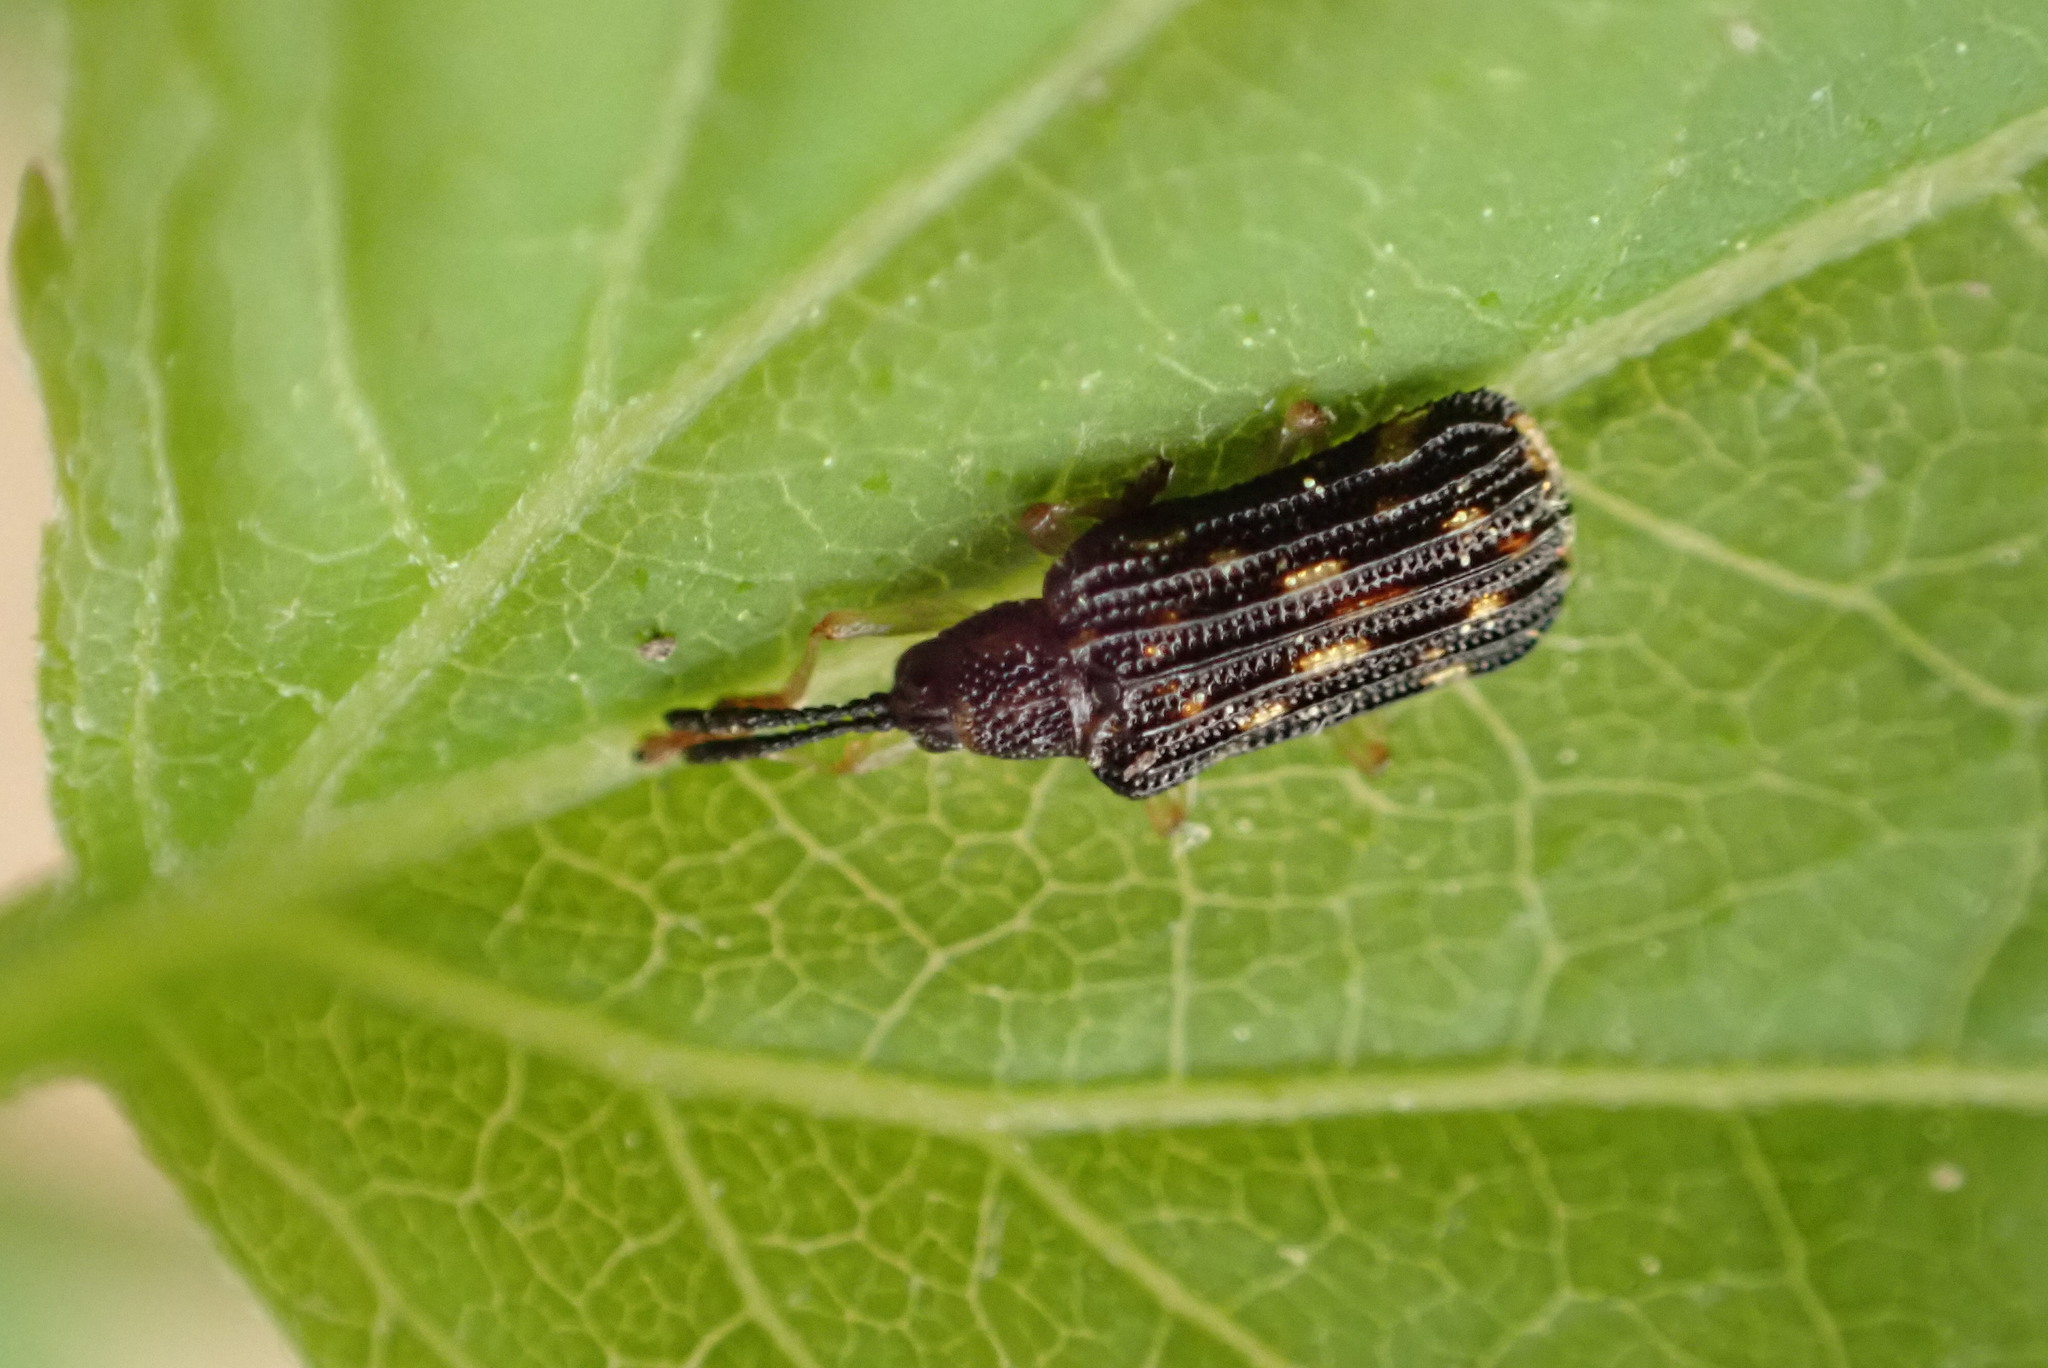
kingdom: Animalia
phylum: Arthropoda
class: Insecta
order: Coleoptera
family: Chrysomelidae
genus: Sumitrosis
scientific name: Sumitrosis inaequalis
